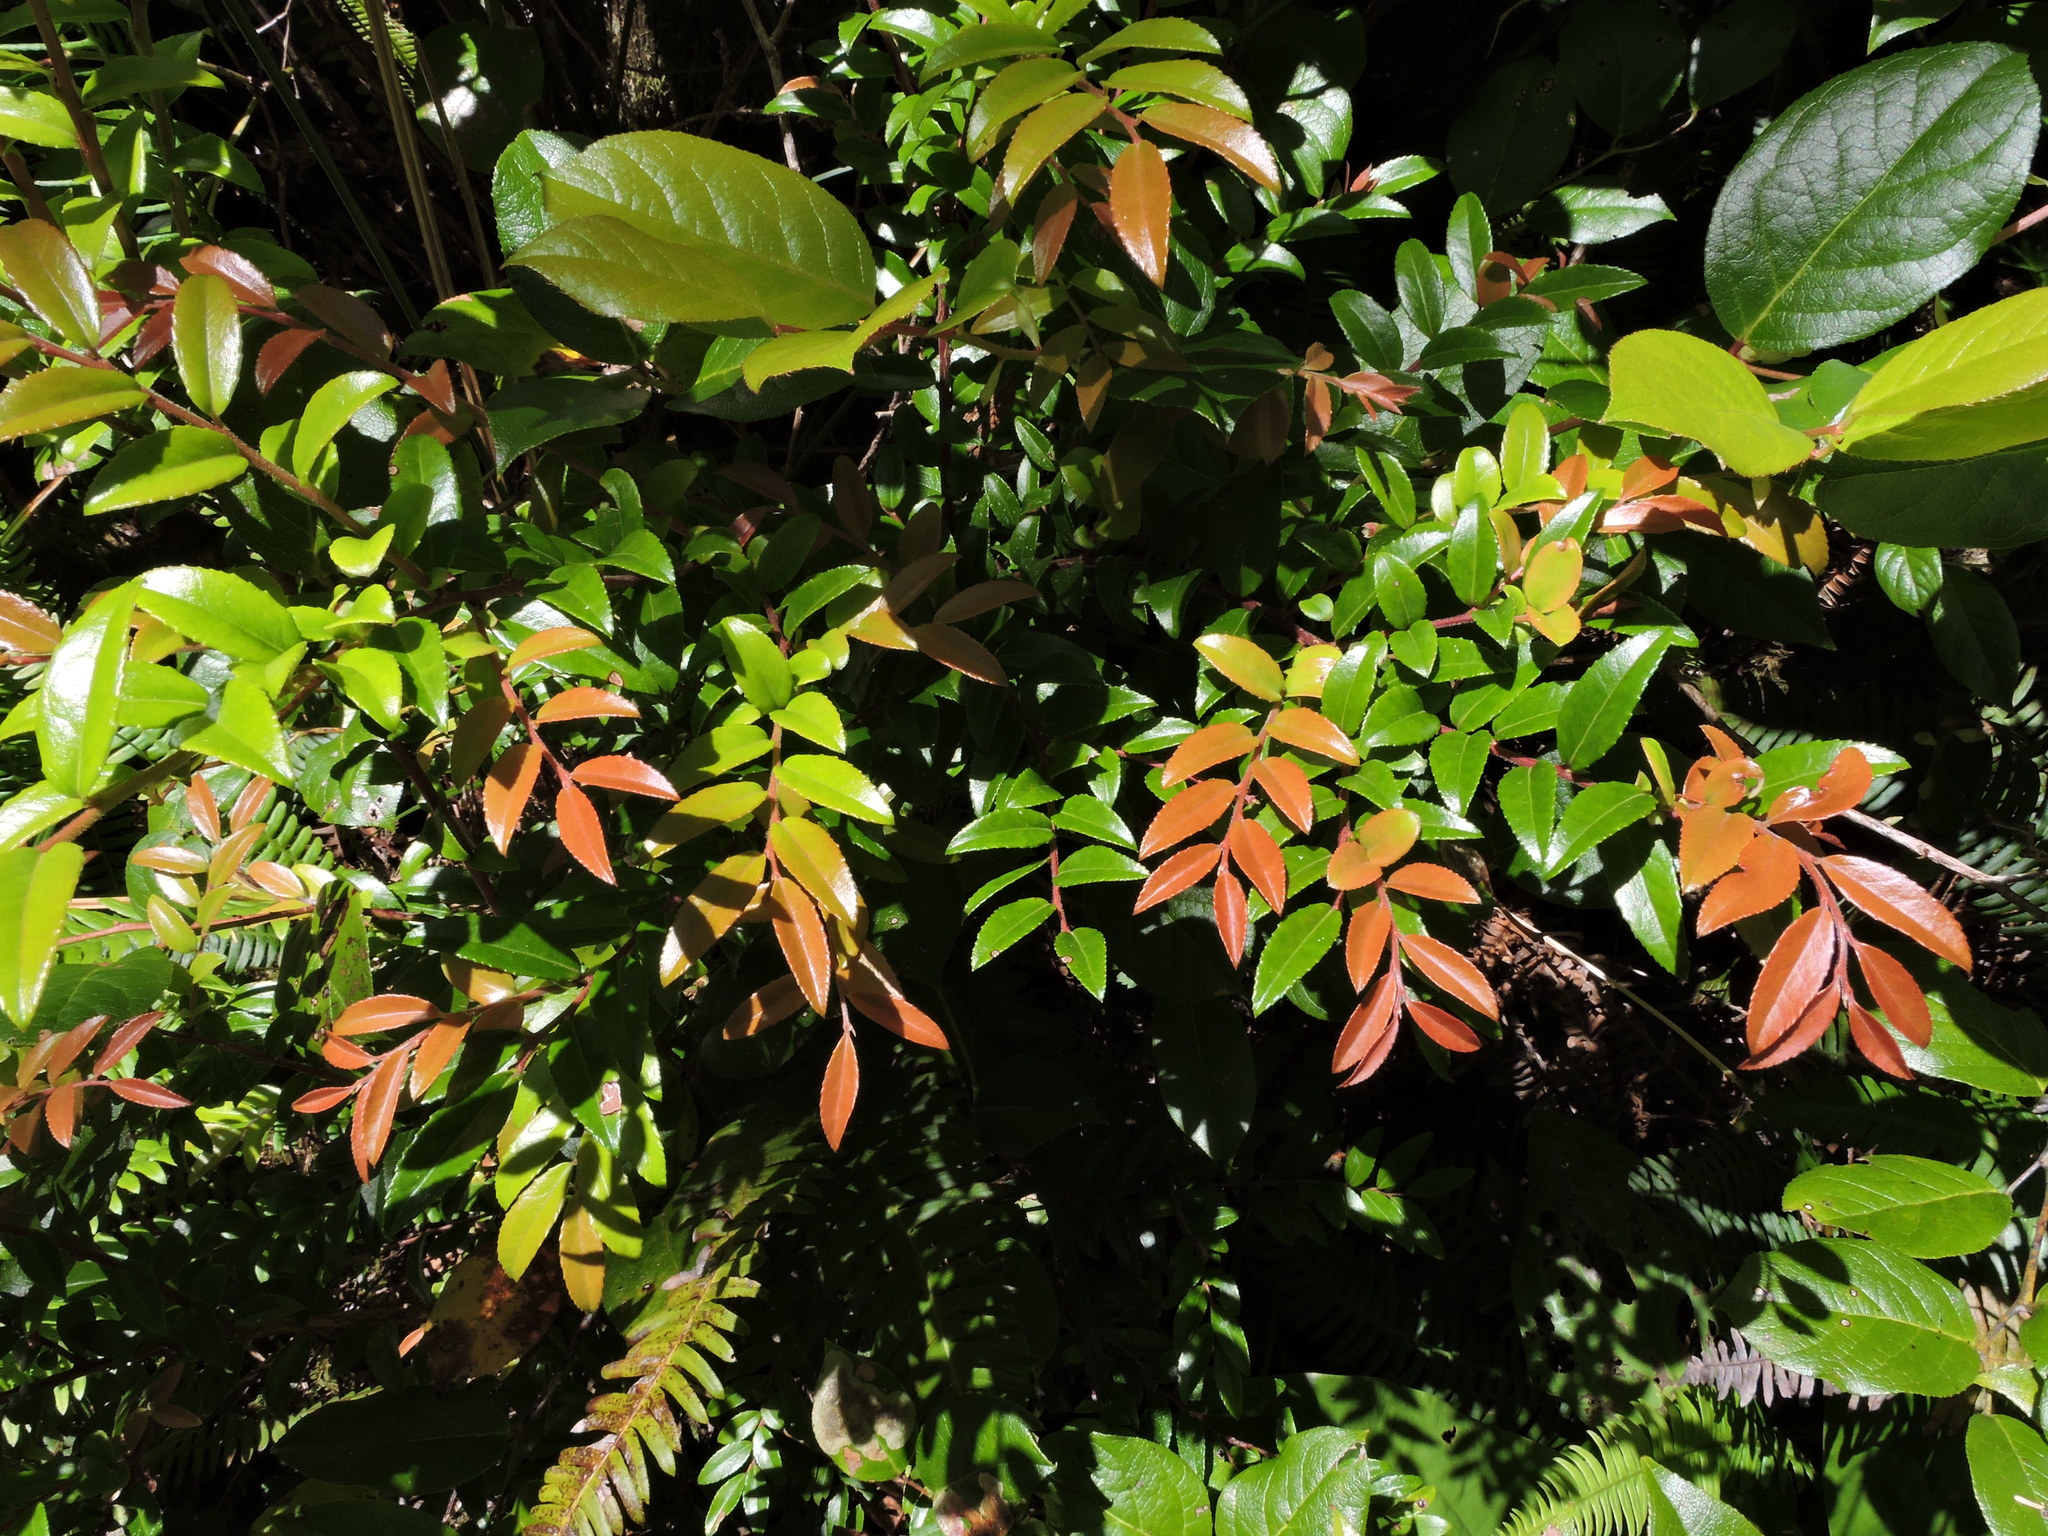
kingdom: Plantae
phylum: Tracheophyta
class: Magnoliopsida
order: Ericales
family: Ericaceae
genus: Vaccinium
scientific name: Vaccinium ovatum
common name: California-huckleberry
